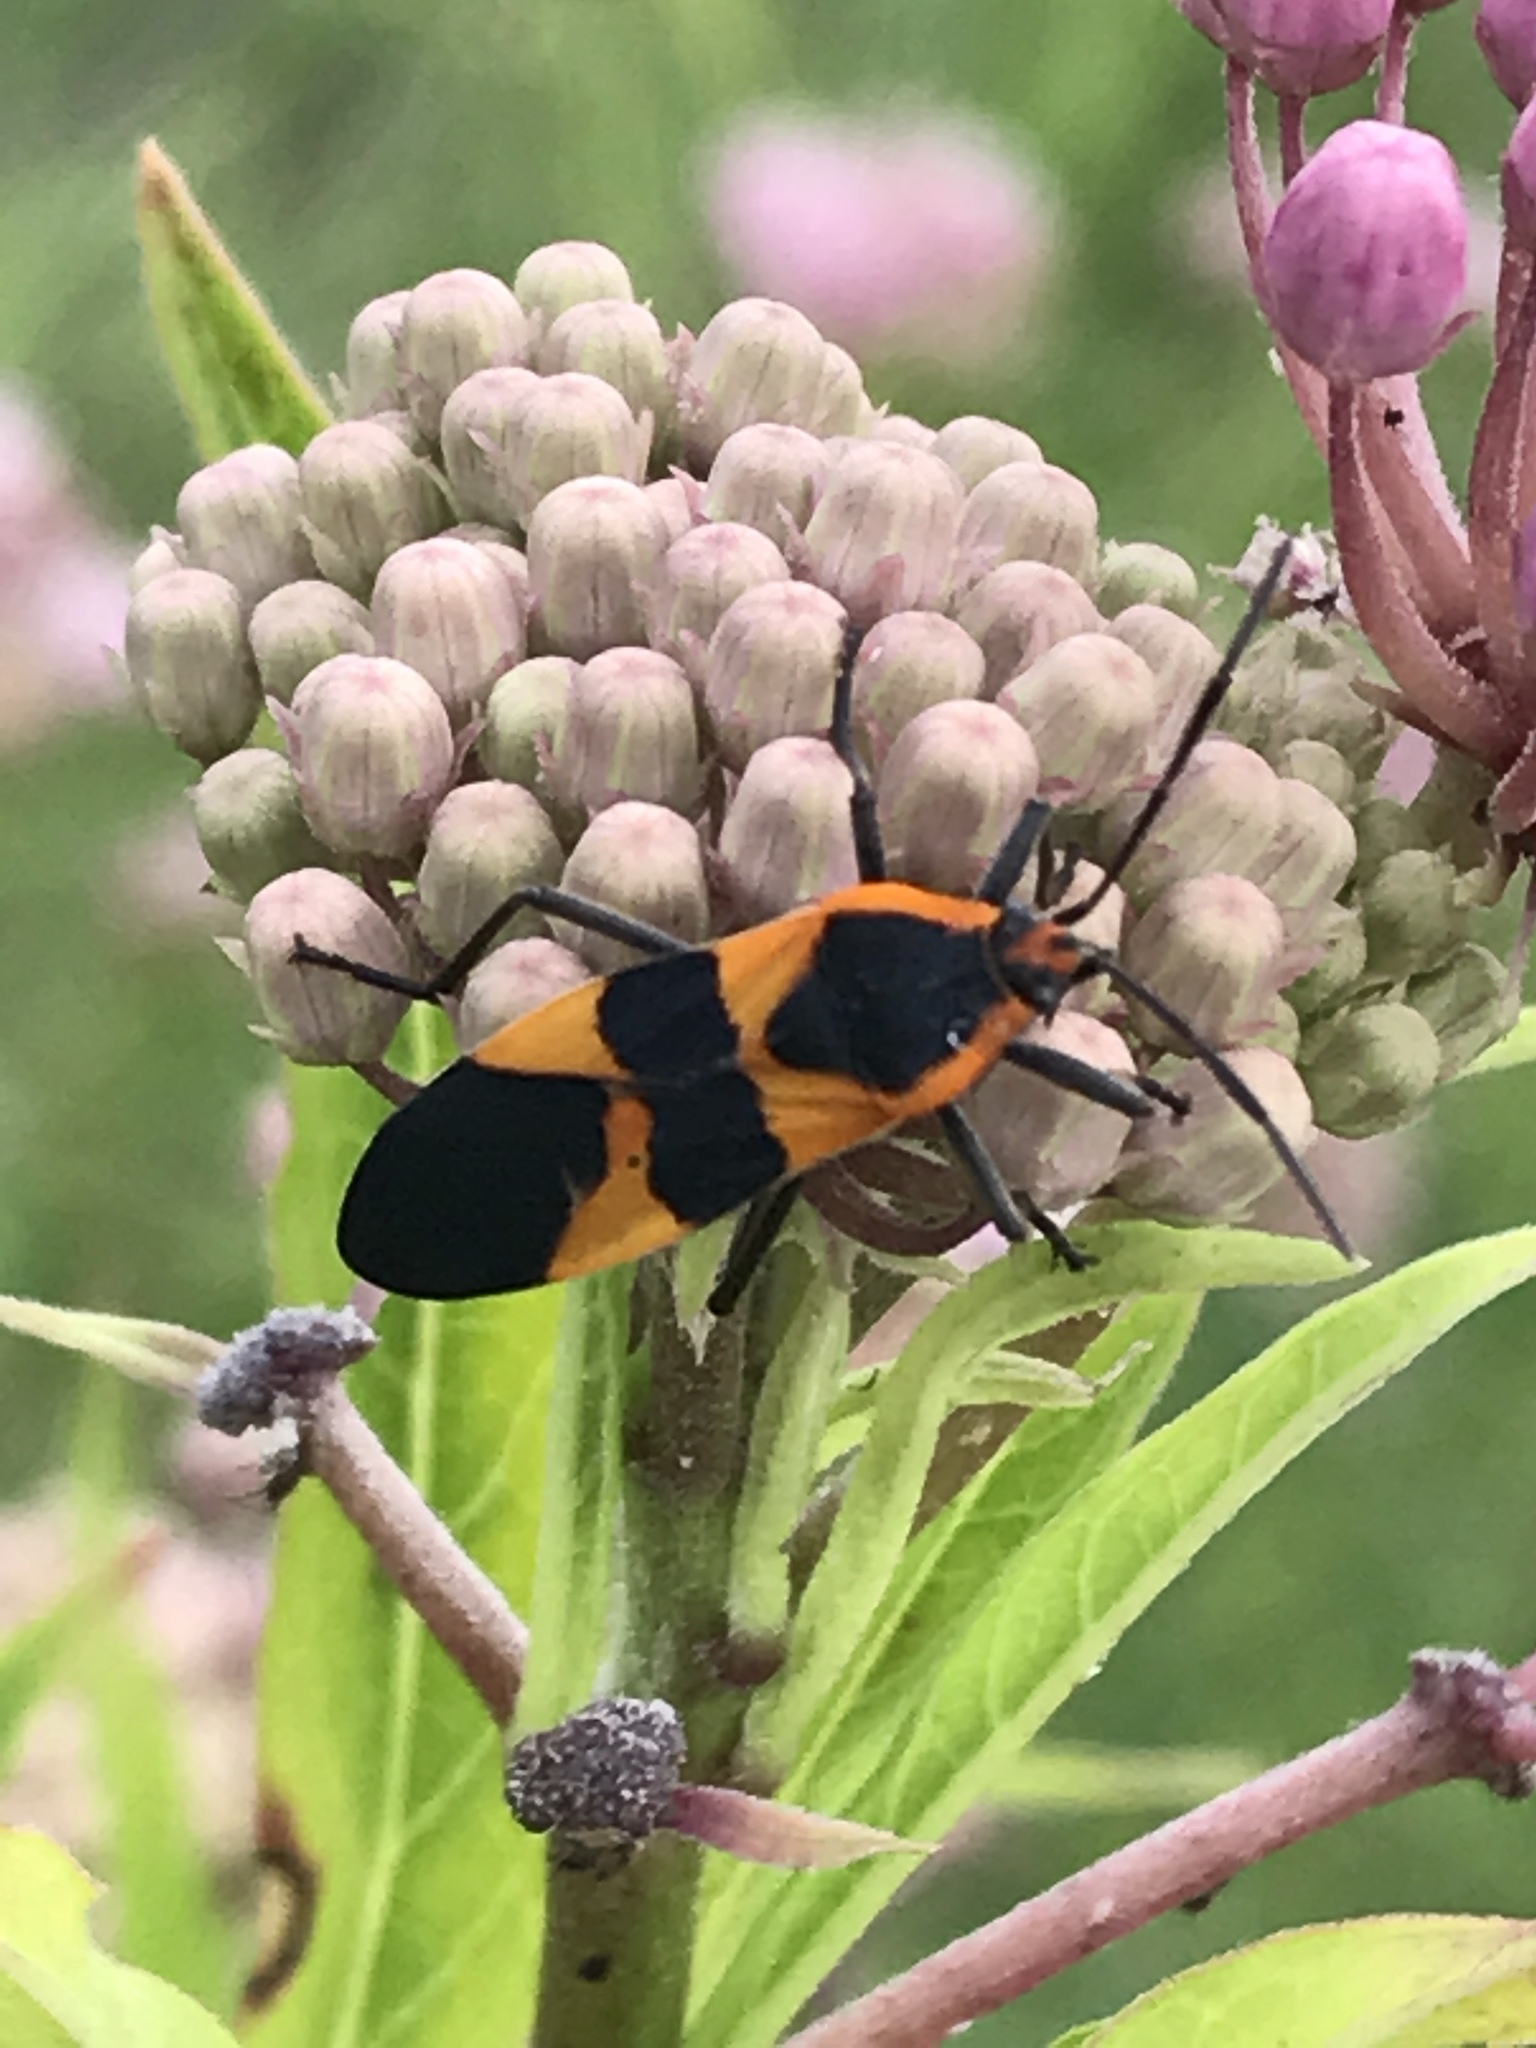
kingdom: Animalia
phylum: Arthropoda
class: Insecta
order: Hemiptera
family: Lygaeidae
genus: Oncopeltus
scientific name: Oncopeltus fasciatus
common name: Large milkweed bug
